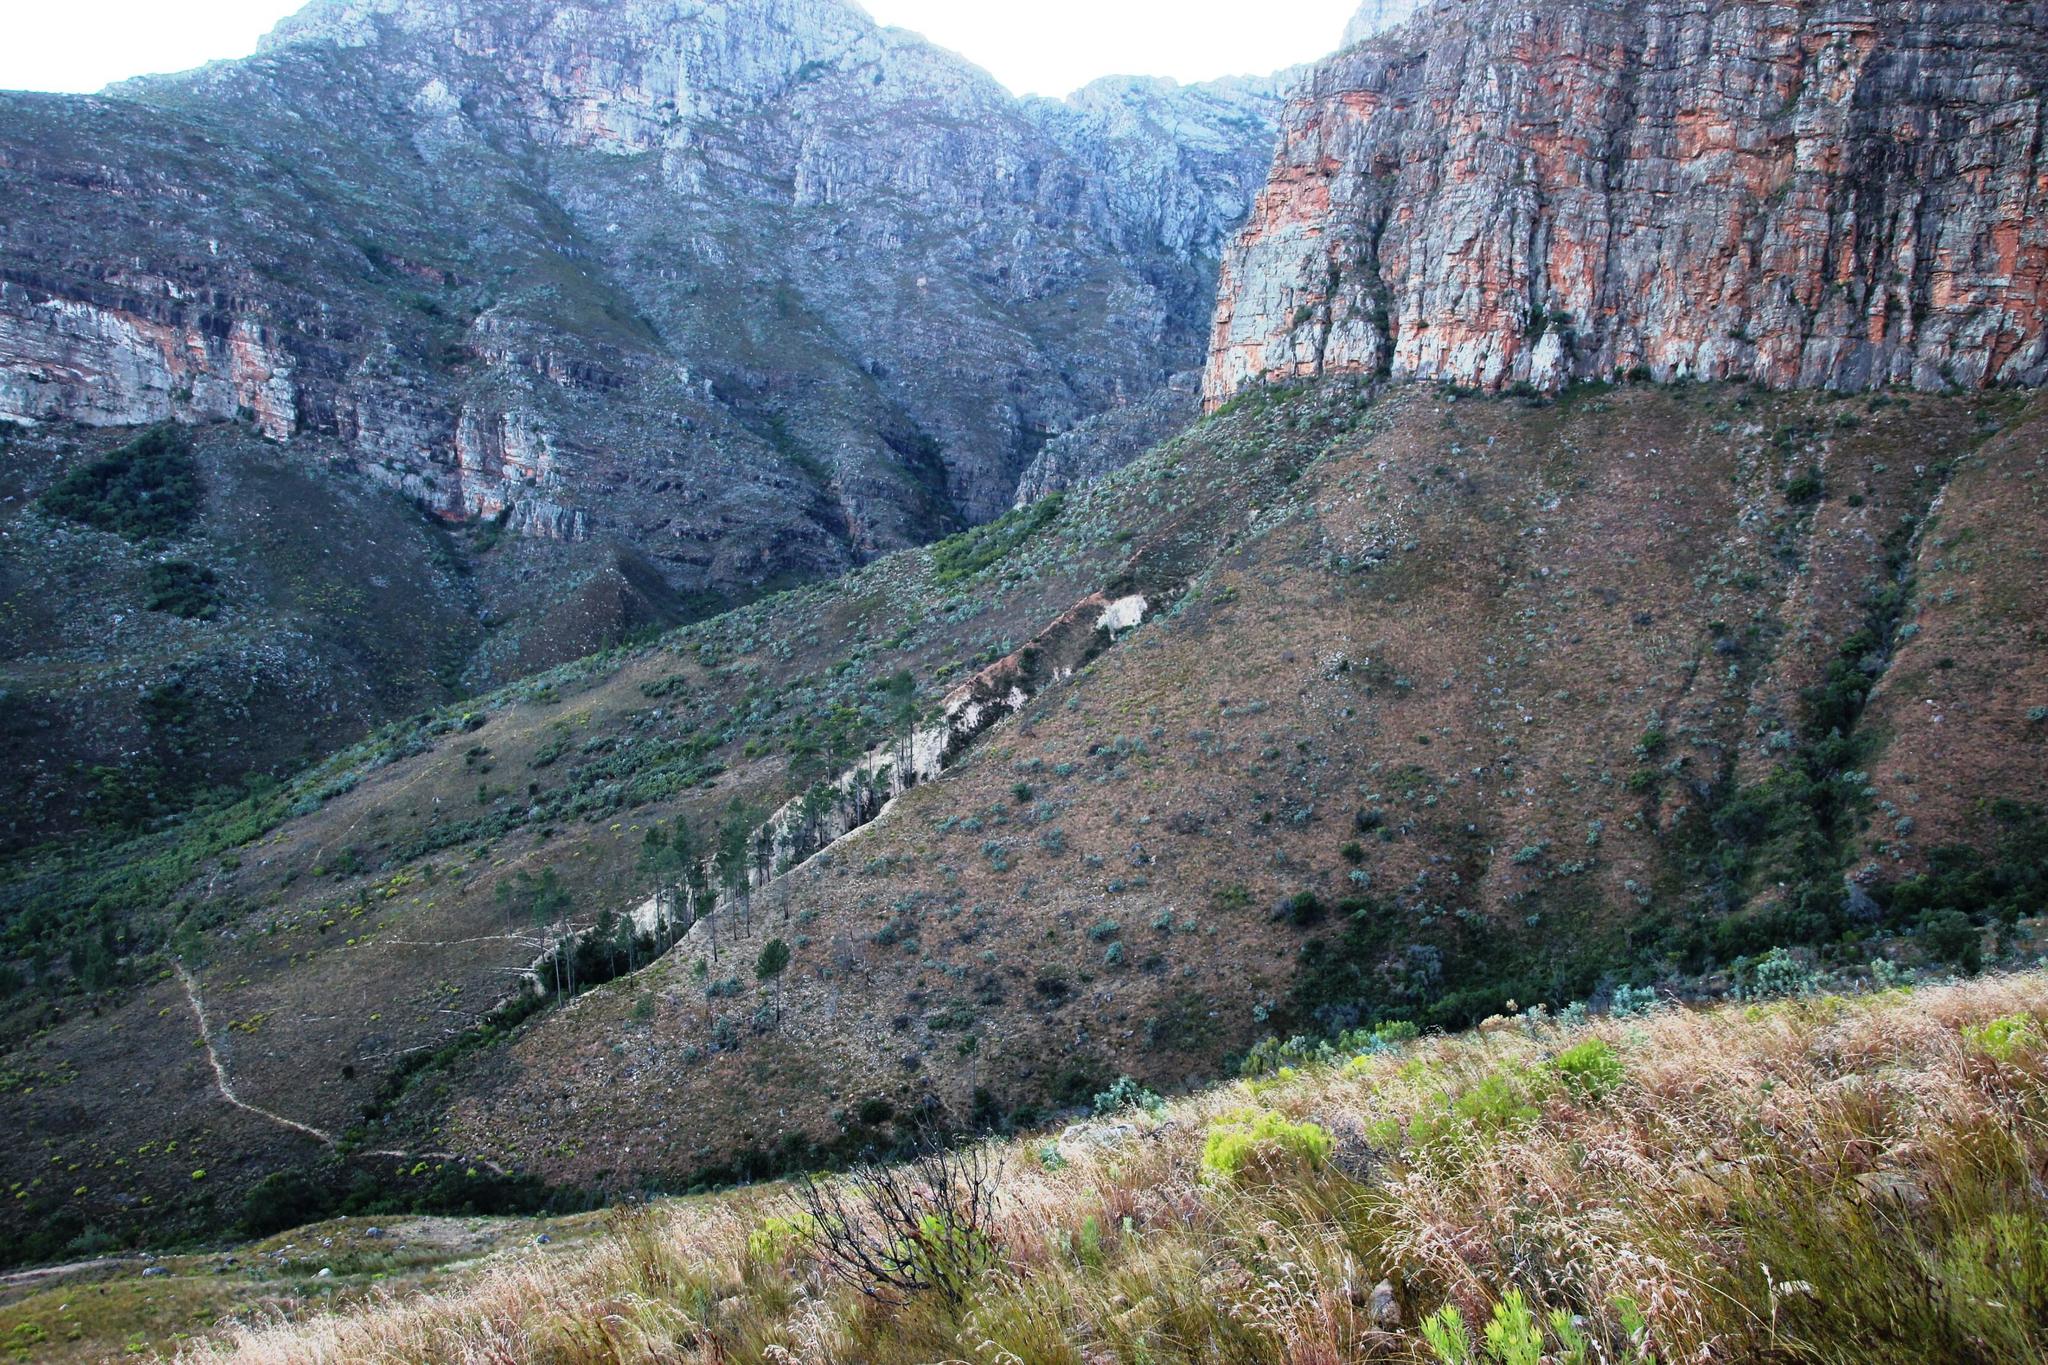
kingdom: Plantae
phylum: Tracheophyta
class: Liliopsida
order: Poales
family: Poaceae
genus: Themeda
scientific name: Themeda triandra
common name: Kangaroo grass
